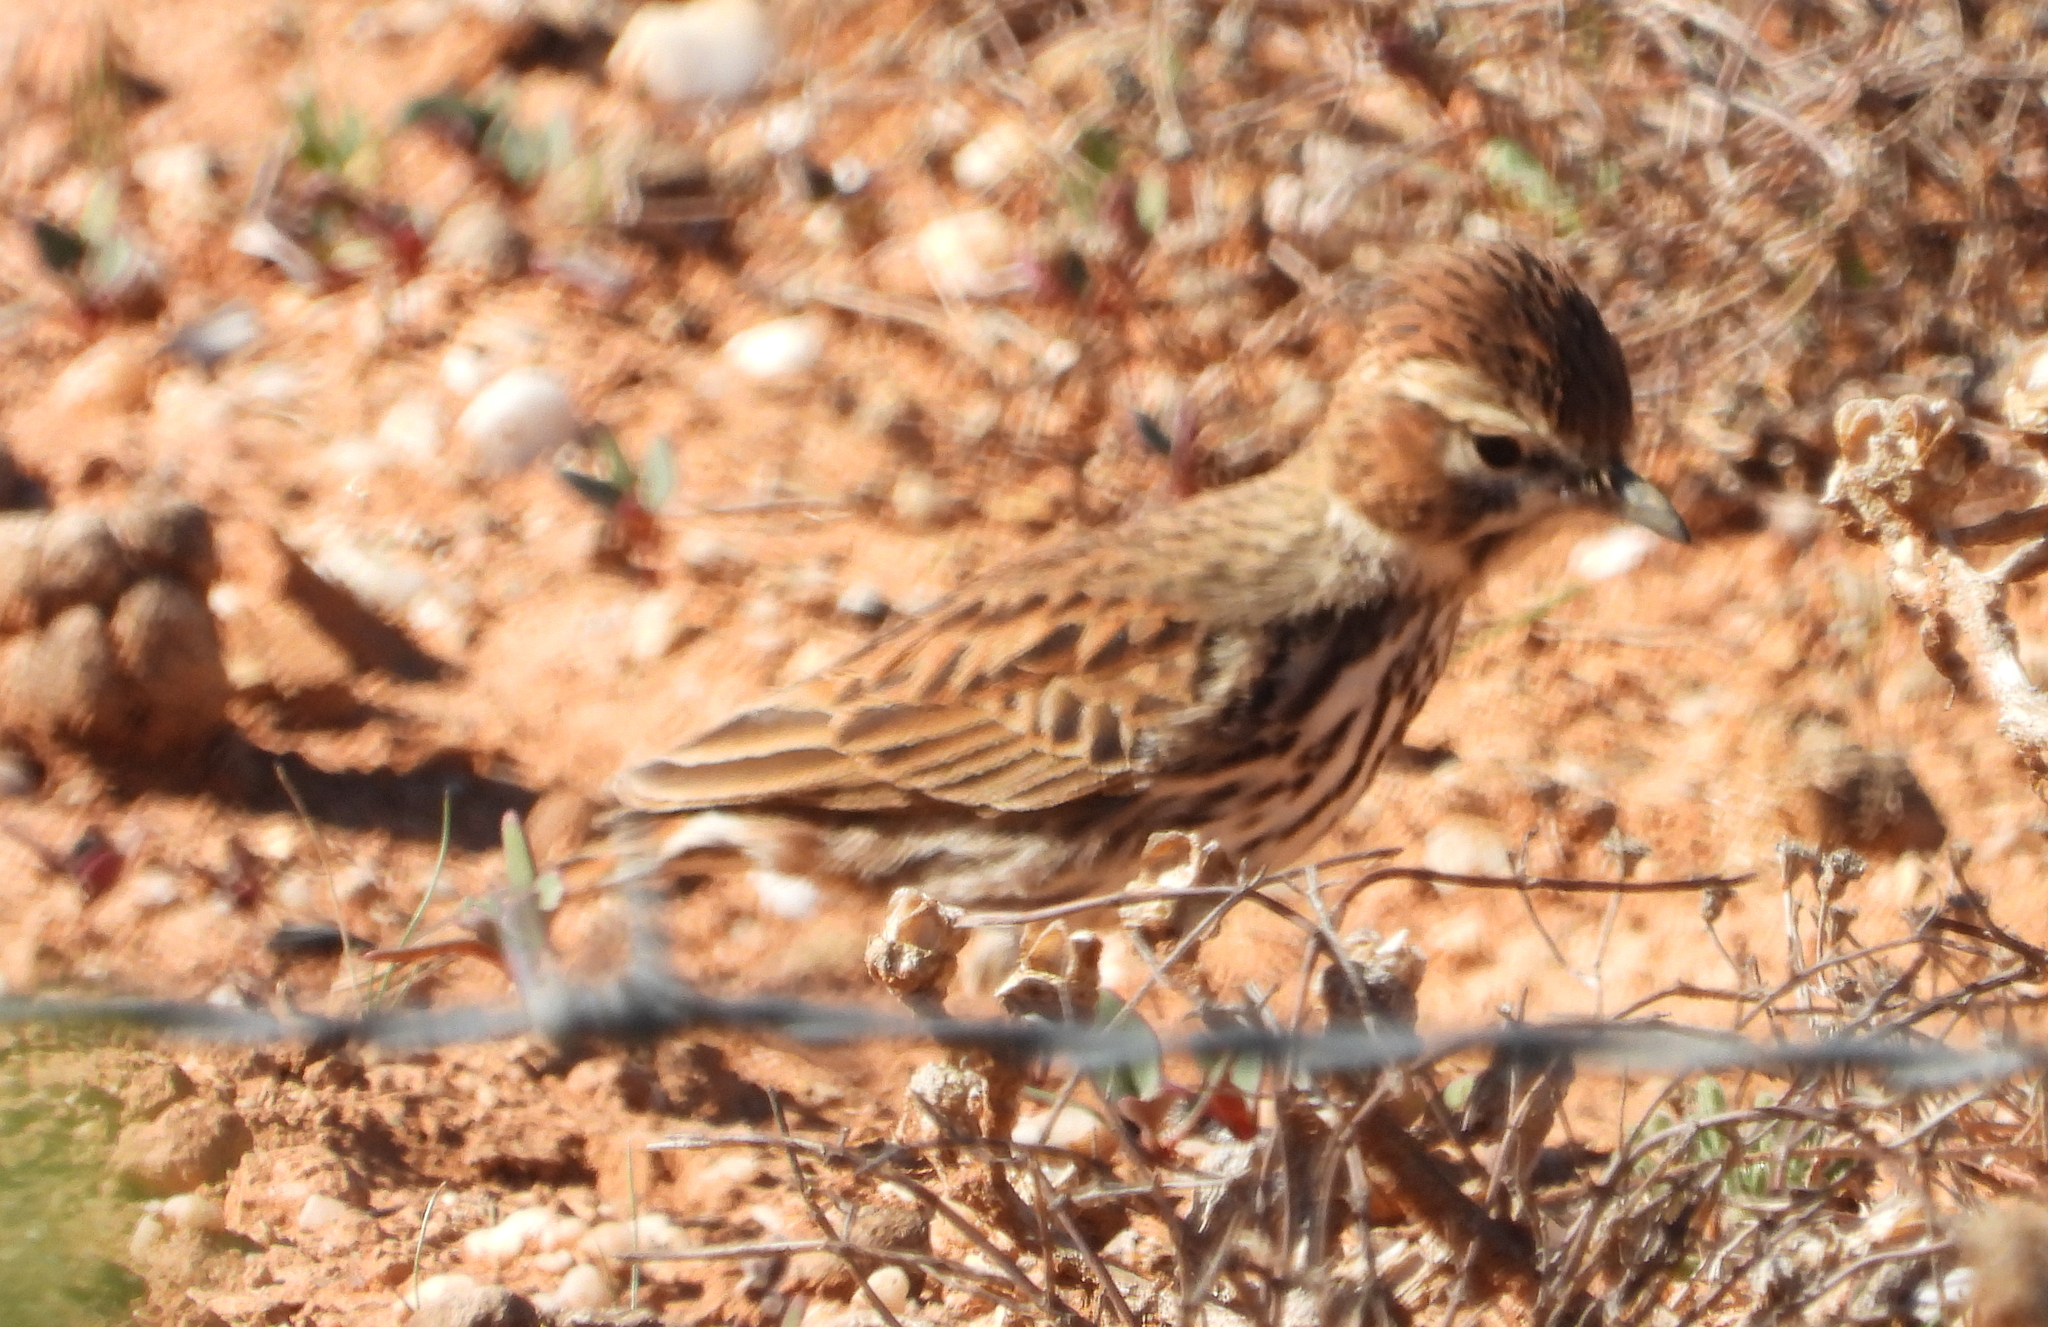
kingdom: Animalia
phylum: Chordata
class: Aves
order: Passeriformes
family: Alaudidae
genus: Calendulauda
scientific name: Calendulauda albescens
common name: Karoo lark
